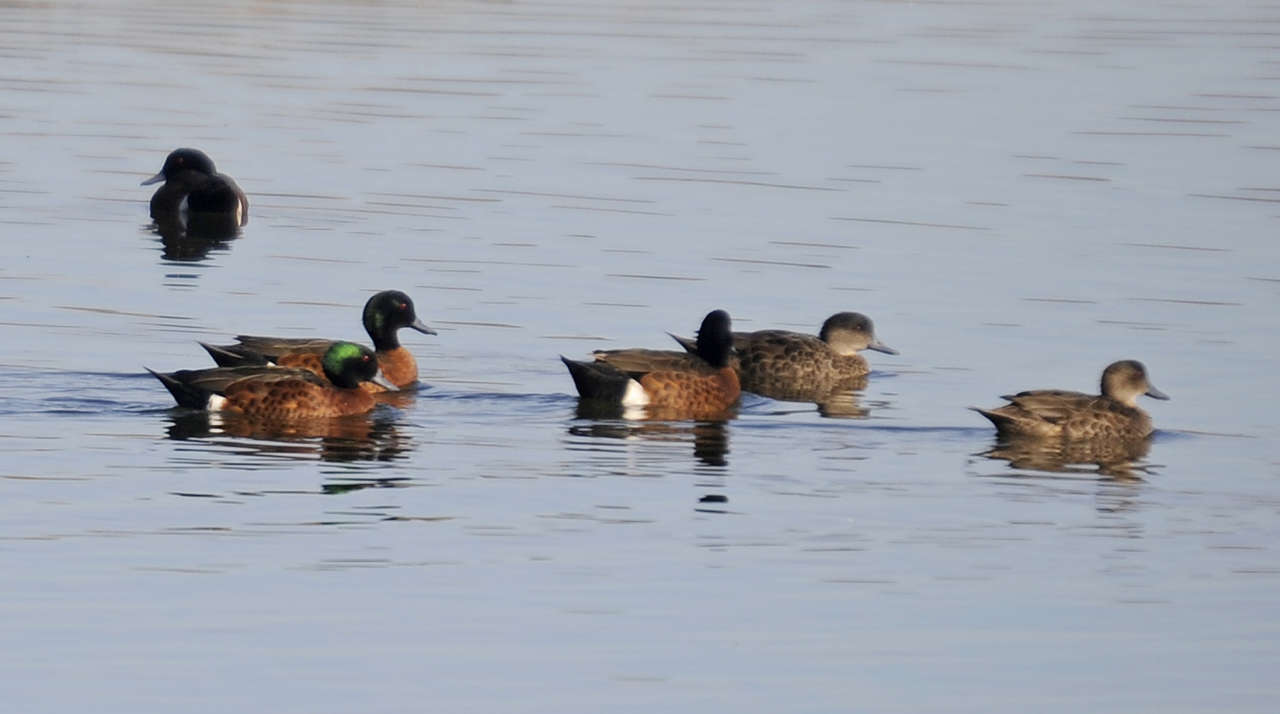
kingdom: Animalia
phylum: Chordata
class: Aves
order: Anseriformes
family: Anatidae
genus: Anas
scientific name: Anas castanea
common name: Chestnut teal
